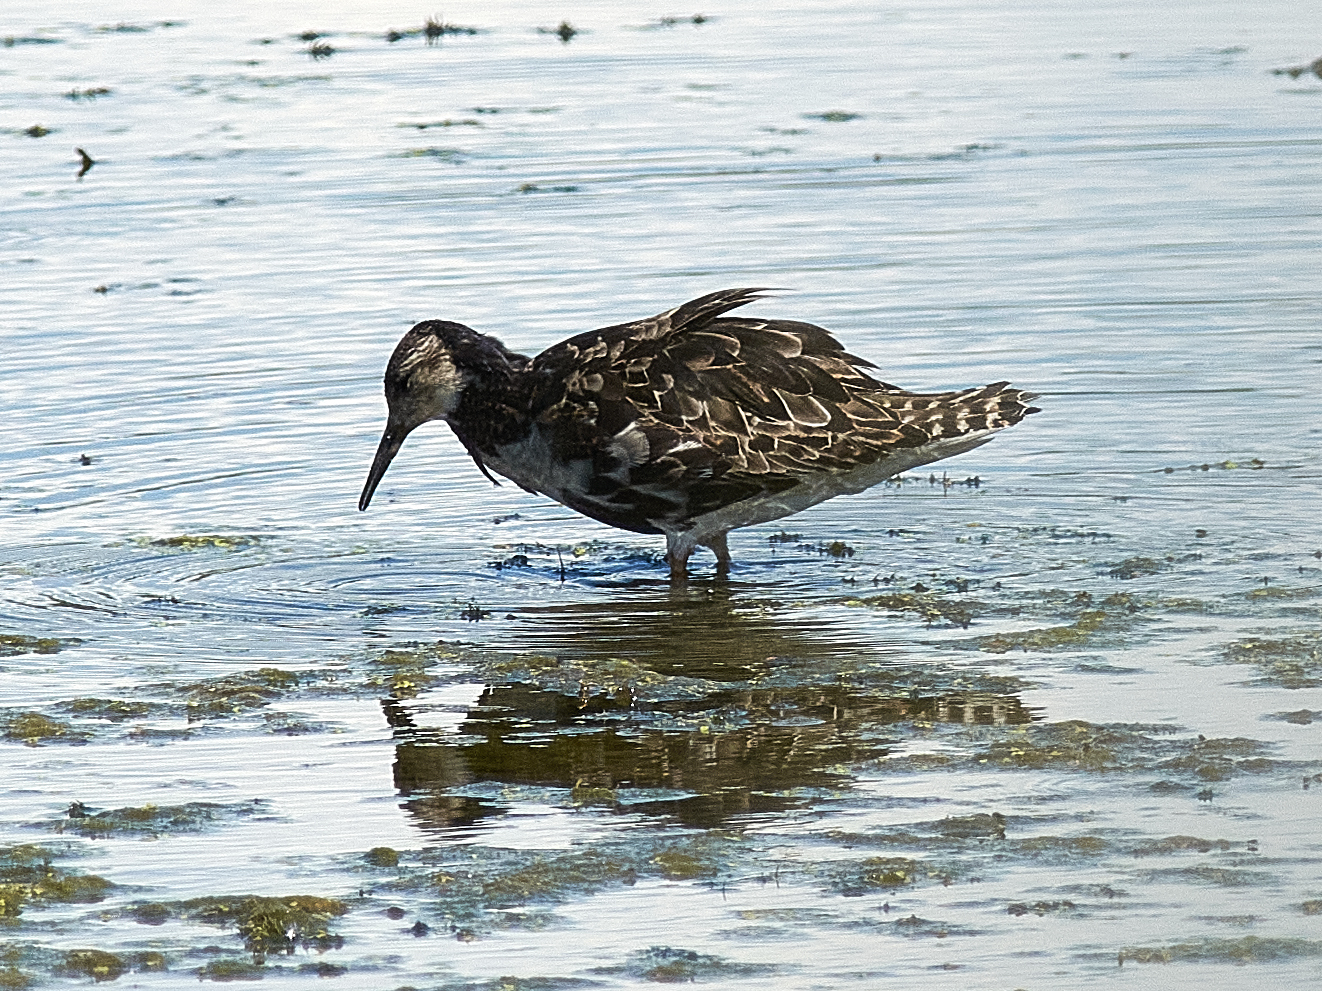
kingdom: Animalia
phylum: Chordata
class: Aves
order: Charadriiformes
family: Scolopacidae
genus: Calidris
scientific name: Calidris pugnax
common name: Ruff
